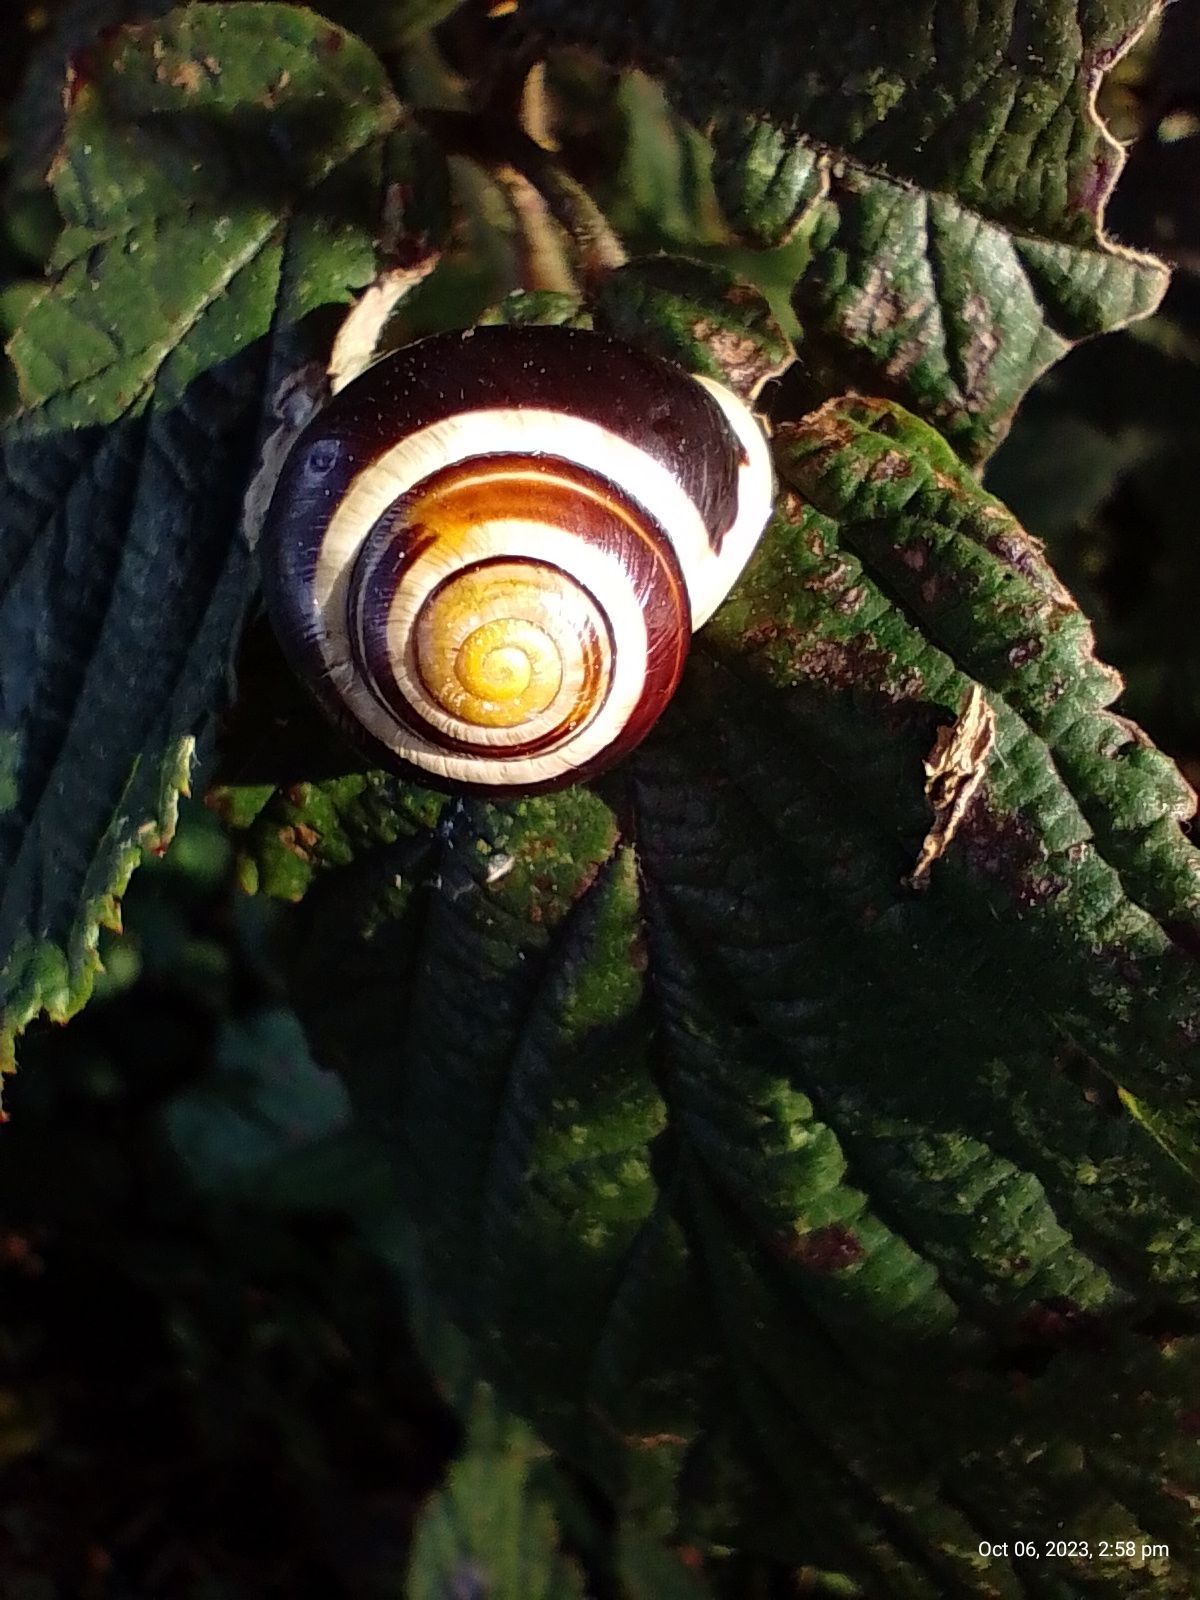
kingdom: Animalia
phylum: Mollusca
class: Gastropoda
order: Stylommatophora
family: Helicidae
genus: Cepaea
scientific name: Cepaea hortensis
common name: White-lip gardensnail
